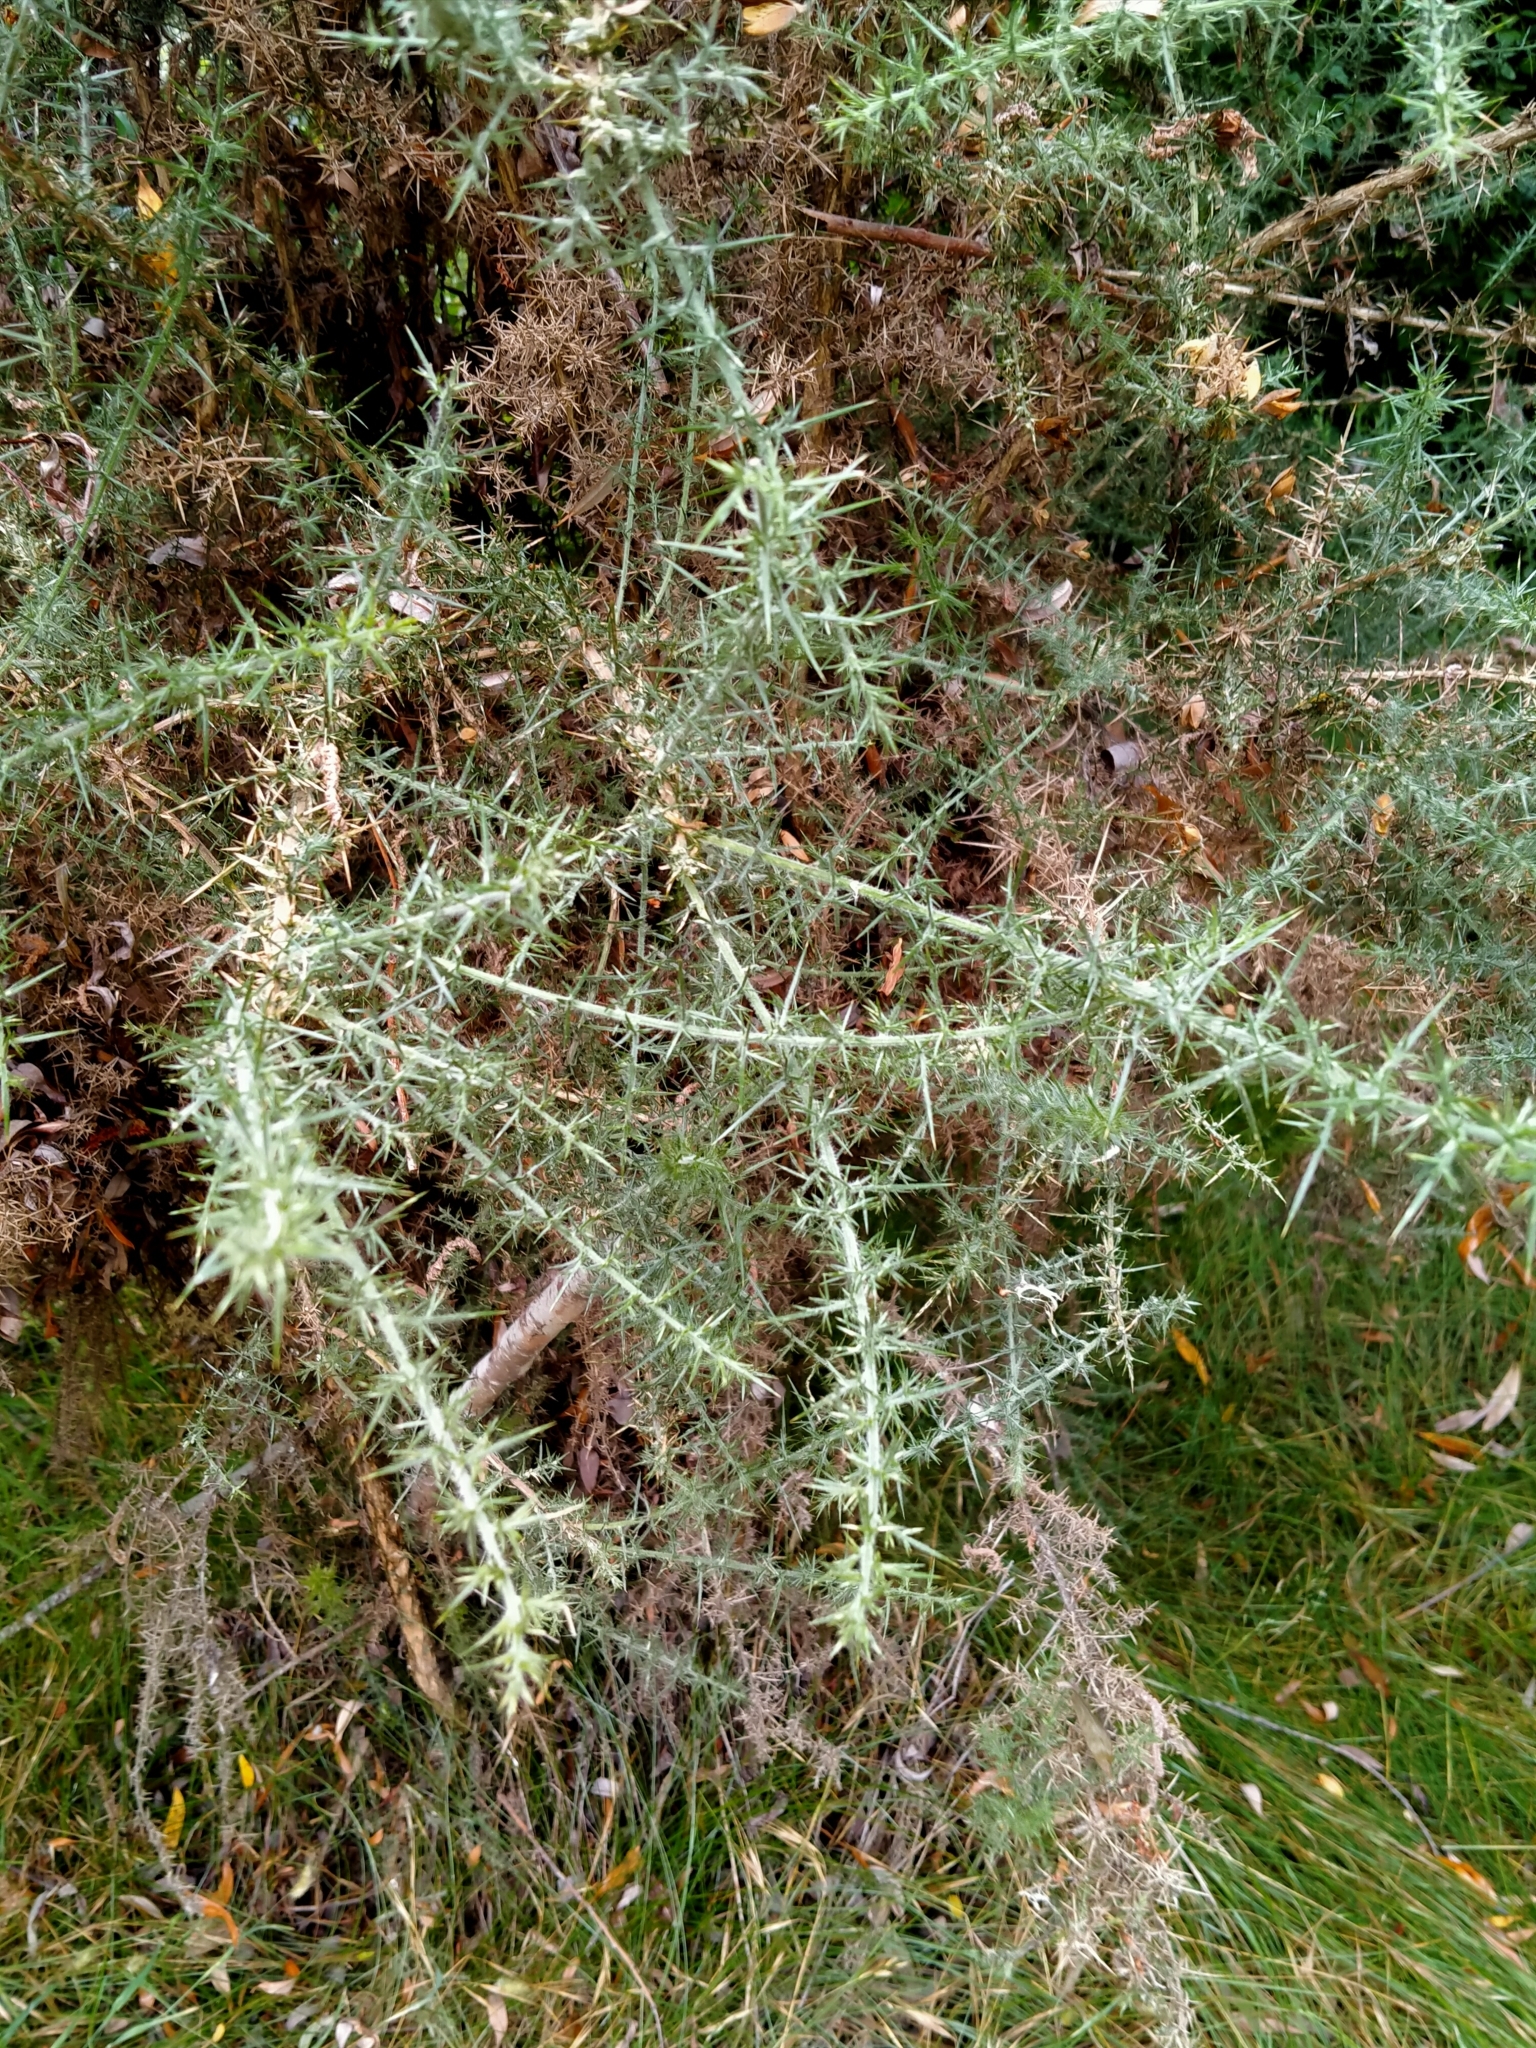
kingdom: Plantae
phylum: Tracheophyta
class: Magnoliopsida
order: Fabales
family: Fabaceae
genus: Ulex
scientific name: Ulex europaeus
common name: Common gorse
